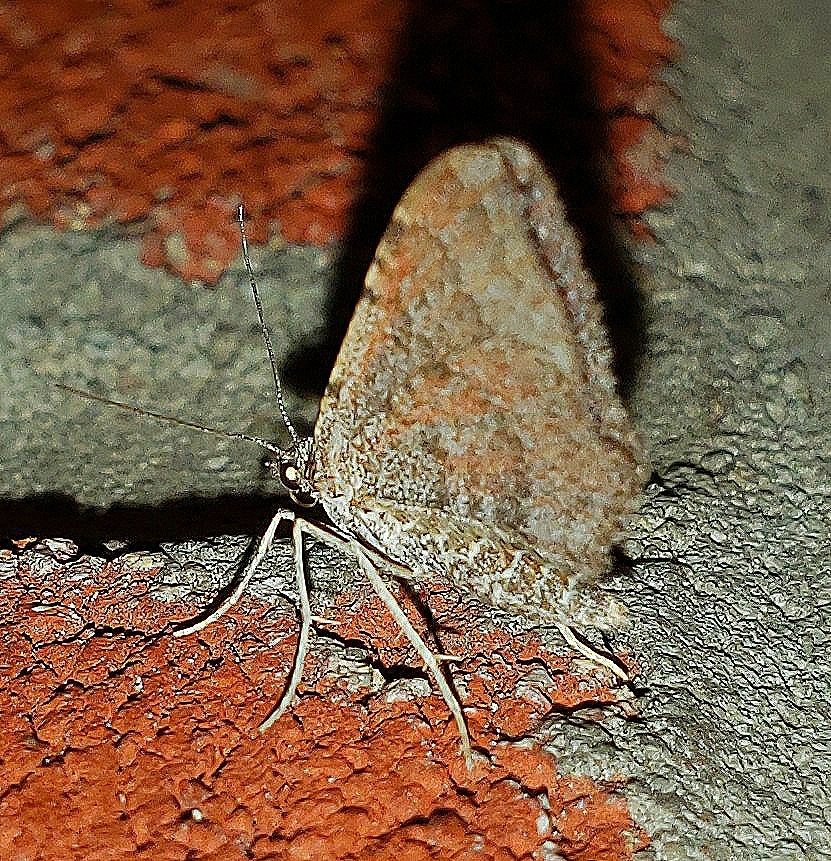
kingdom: Animalia
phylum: Arthropoda
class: Insecta
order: Lepidoptera
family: Geometridae
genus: Orthonama
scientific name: Orthonama obstipata
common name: The gem
